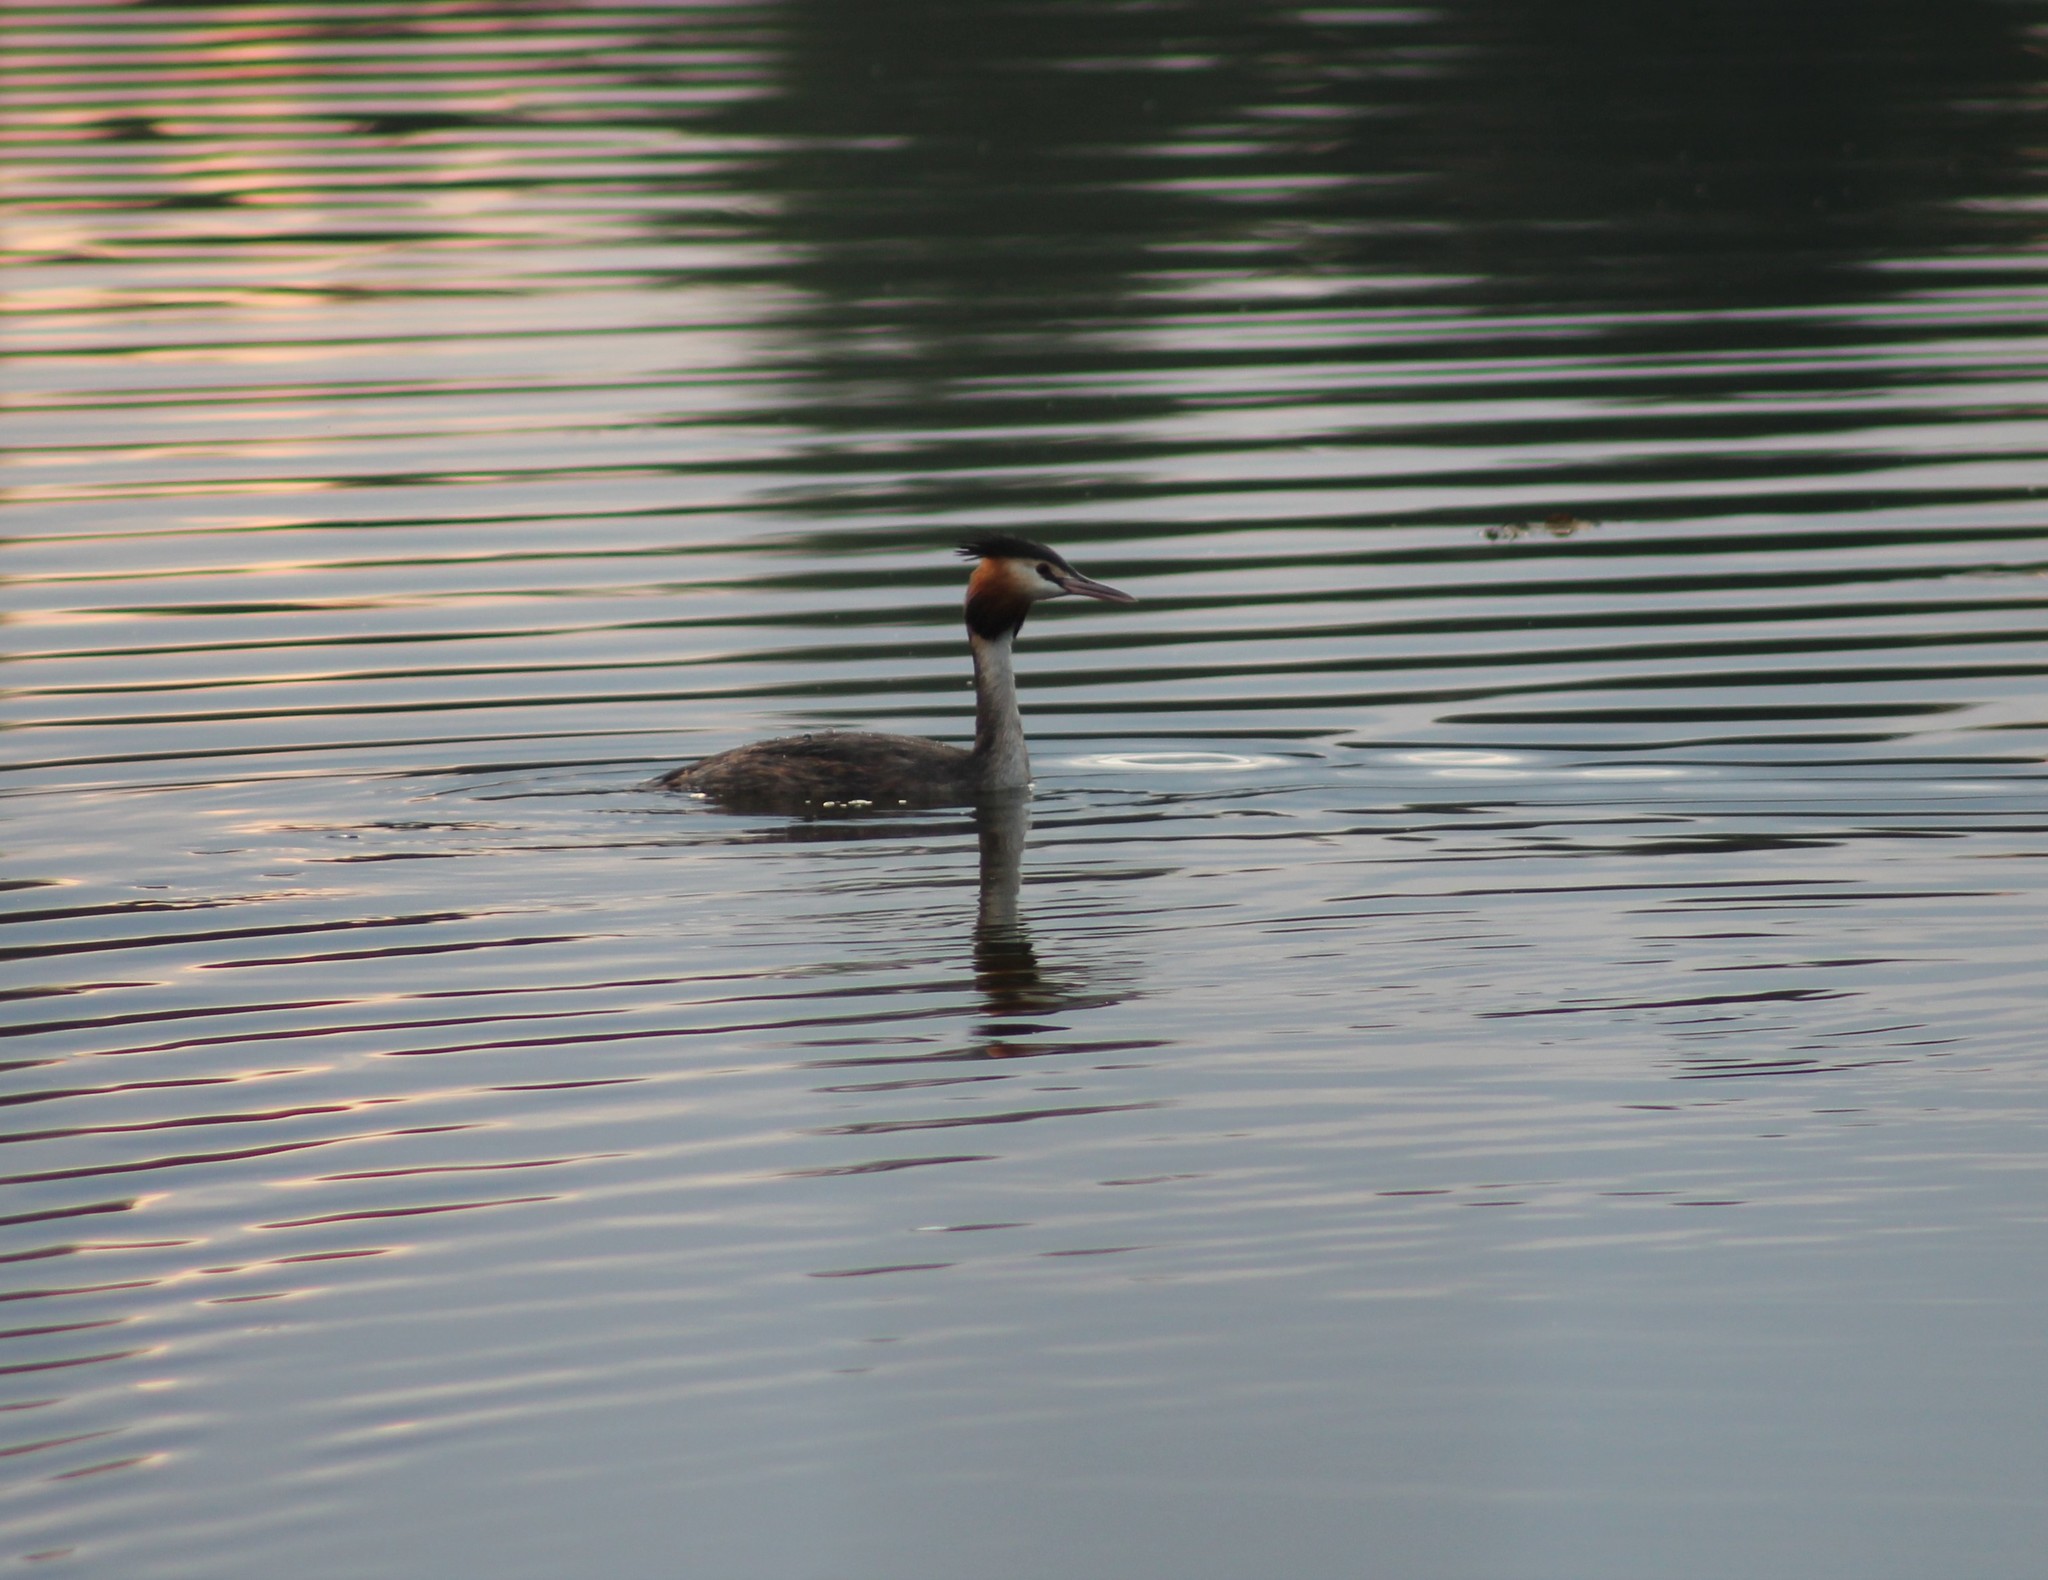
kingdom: Animalia
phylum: Chordata
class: Aves
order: Podicipediformes
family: Podicipedidae
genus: Podiceps
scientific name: Podiceps cristatus
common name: Great crested grebe
